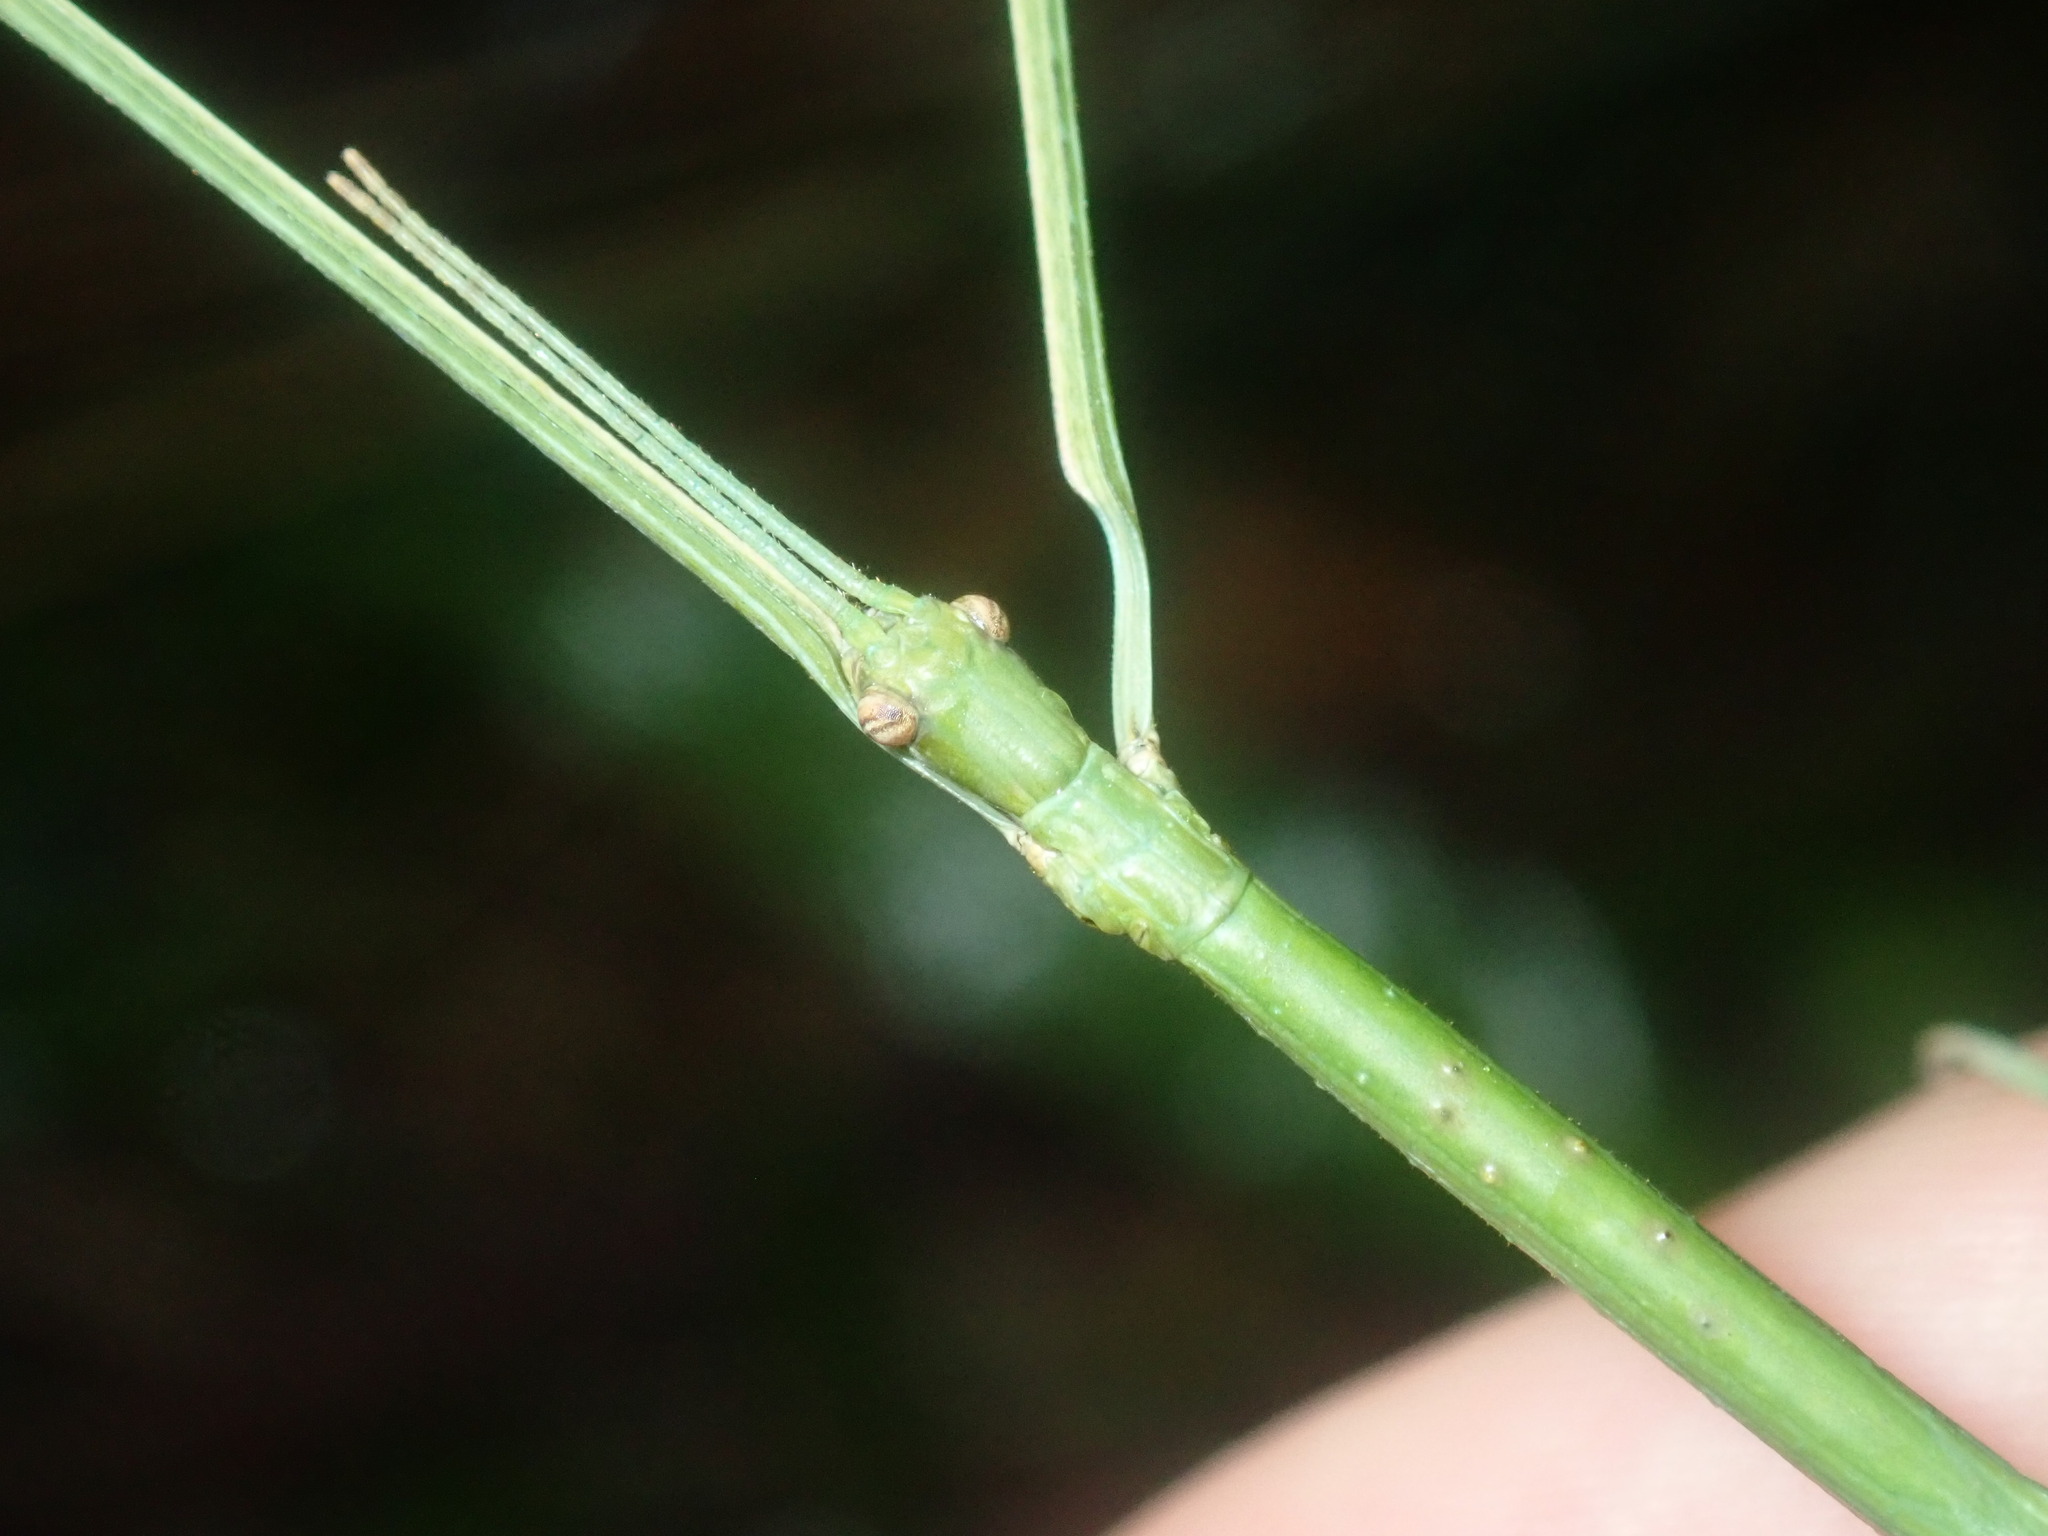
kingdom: Animalia
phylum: Arthropoda
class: Insecta
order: Phasmida
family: Phasmatidae
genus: Ctenomorpha
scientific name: Ctenomorpha marginipennis
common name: Margined-winged stick-insect
